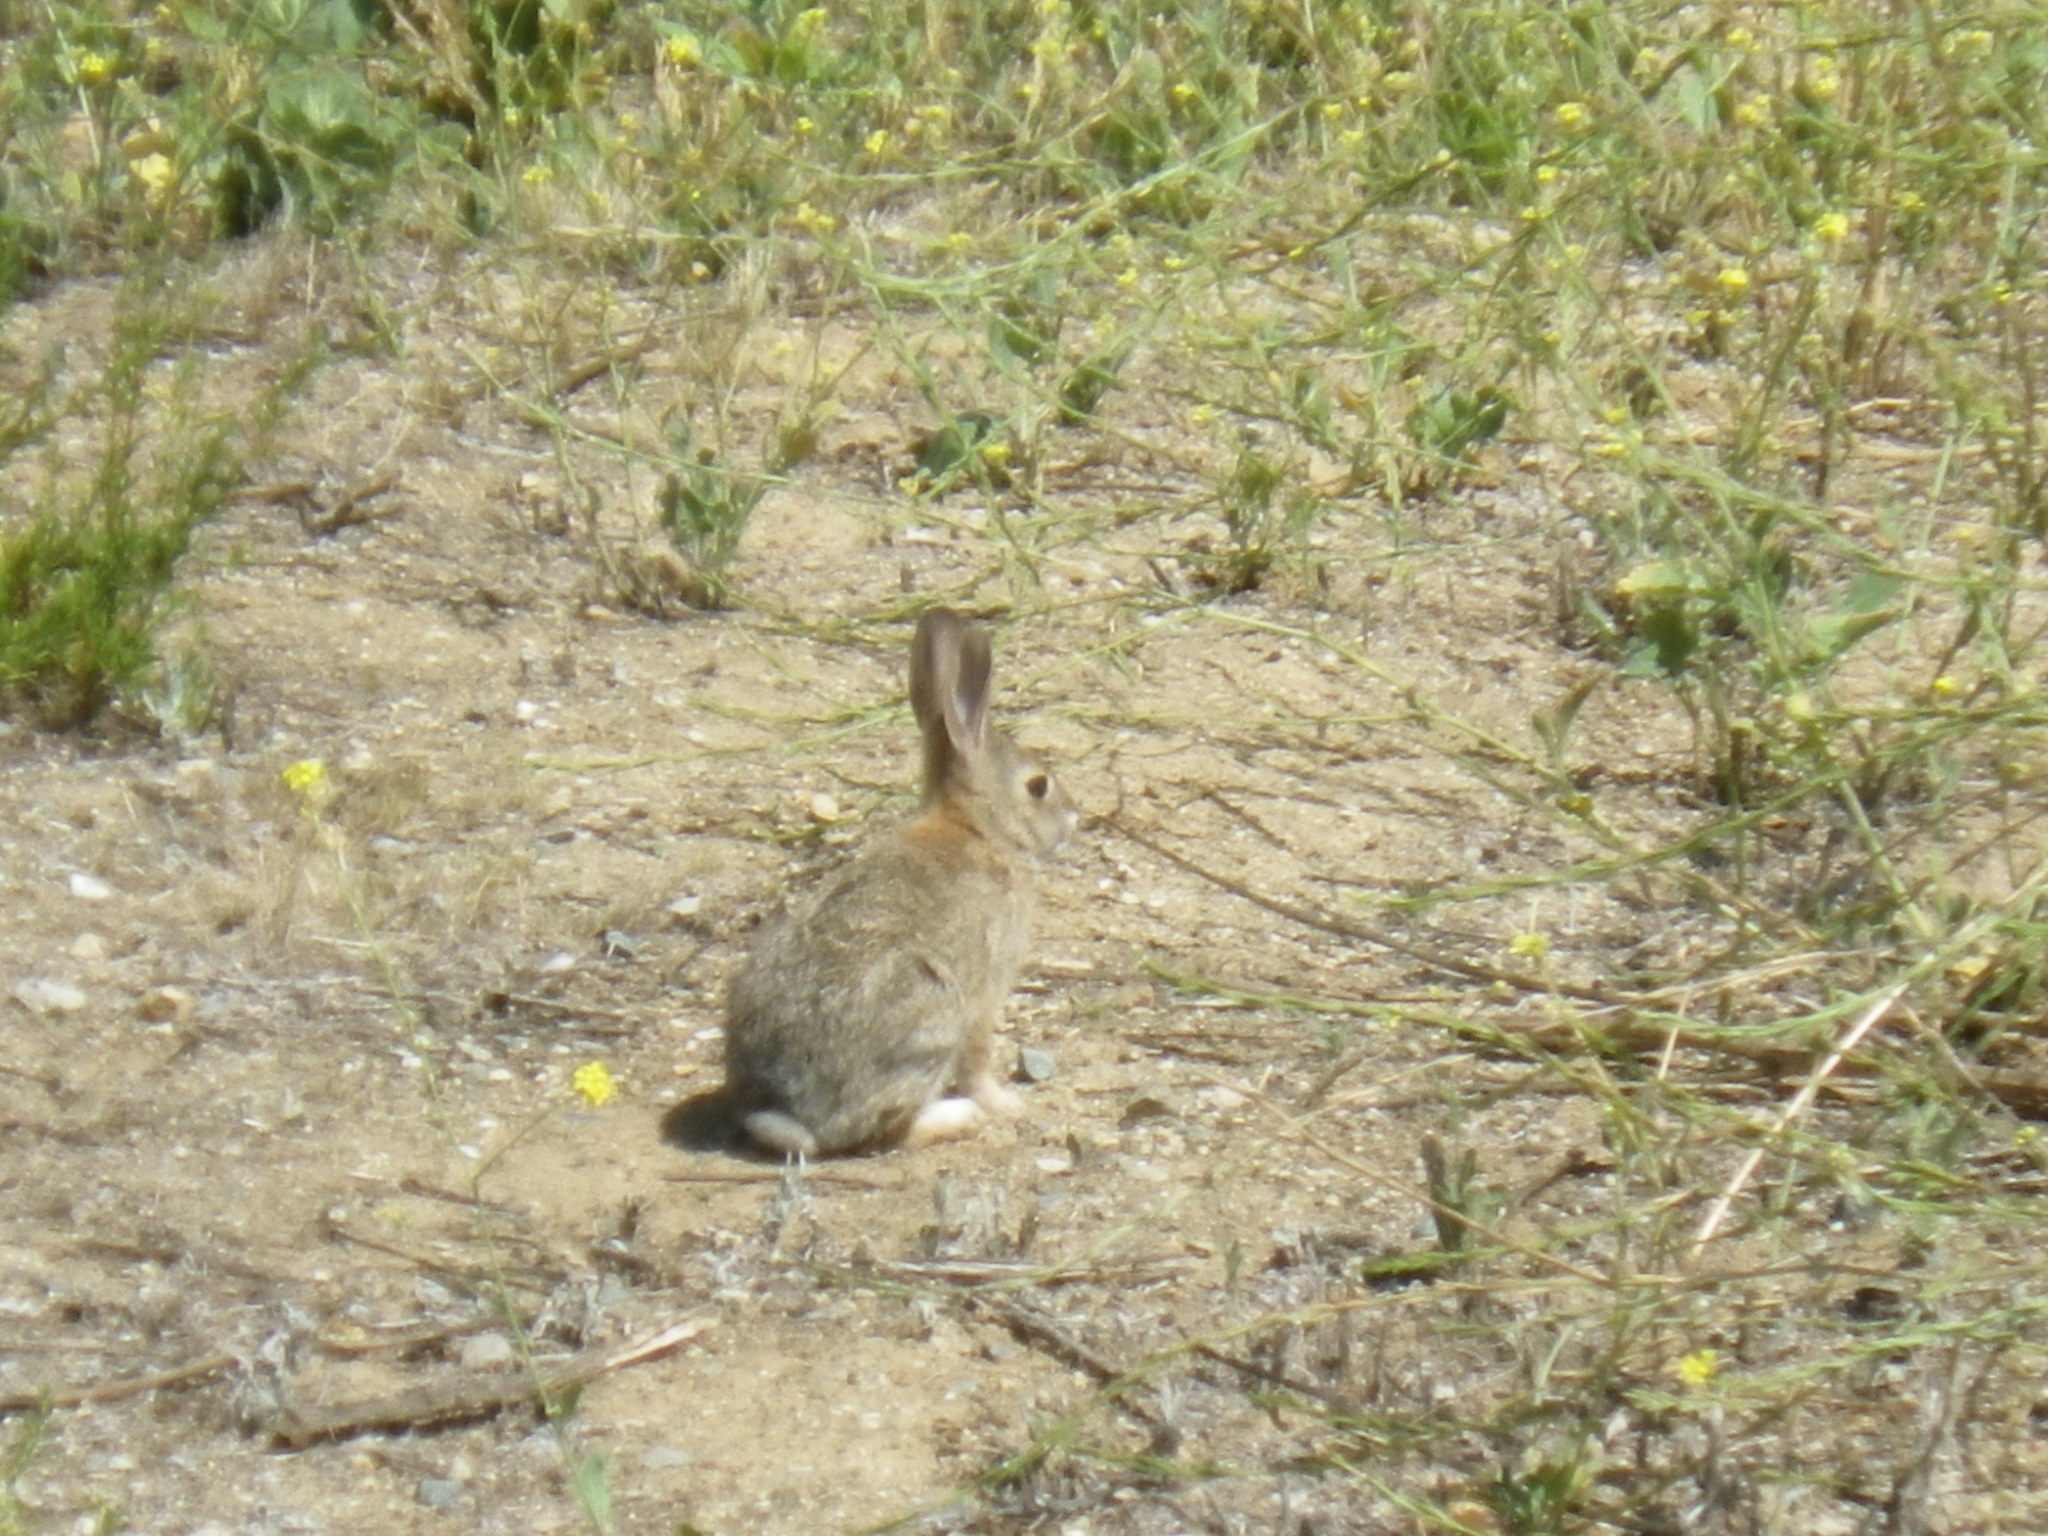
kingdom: Animalia
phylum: Chordata
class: Mammalia
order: Lagomorpha
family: Leporidae
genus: Sylvilagus
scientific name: Sylvilagus audubonii
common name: Desert cottontail
